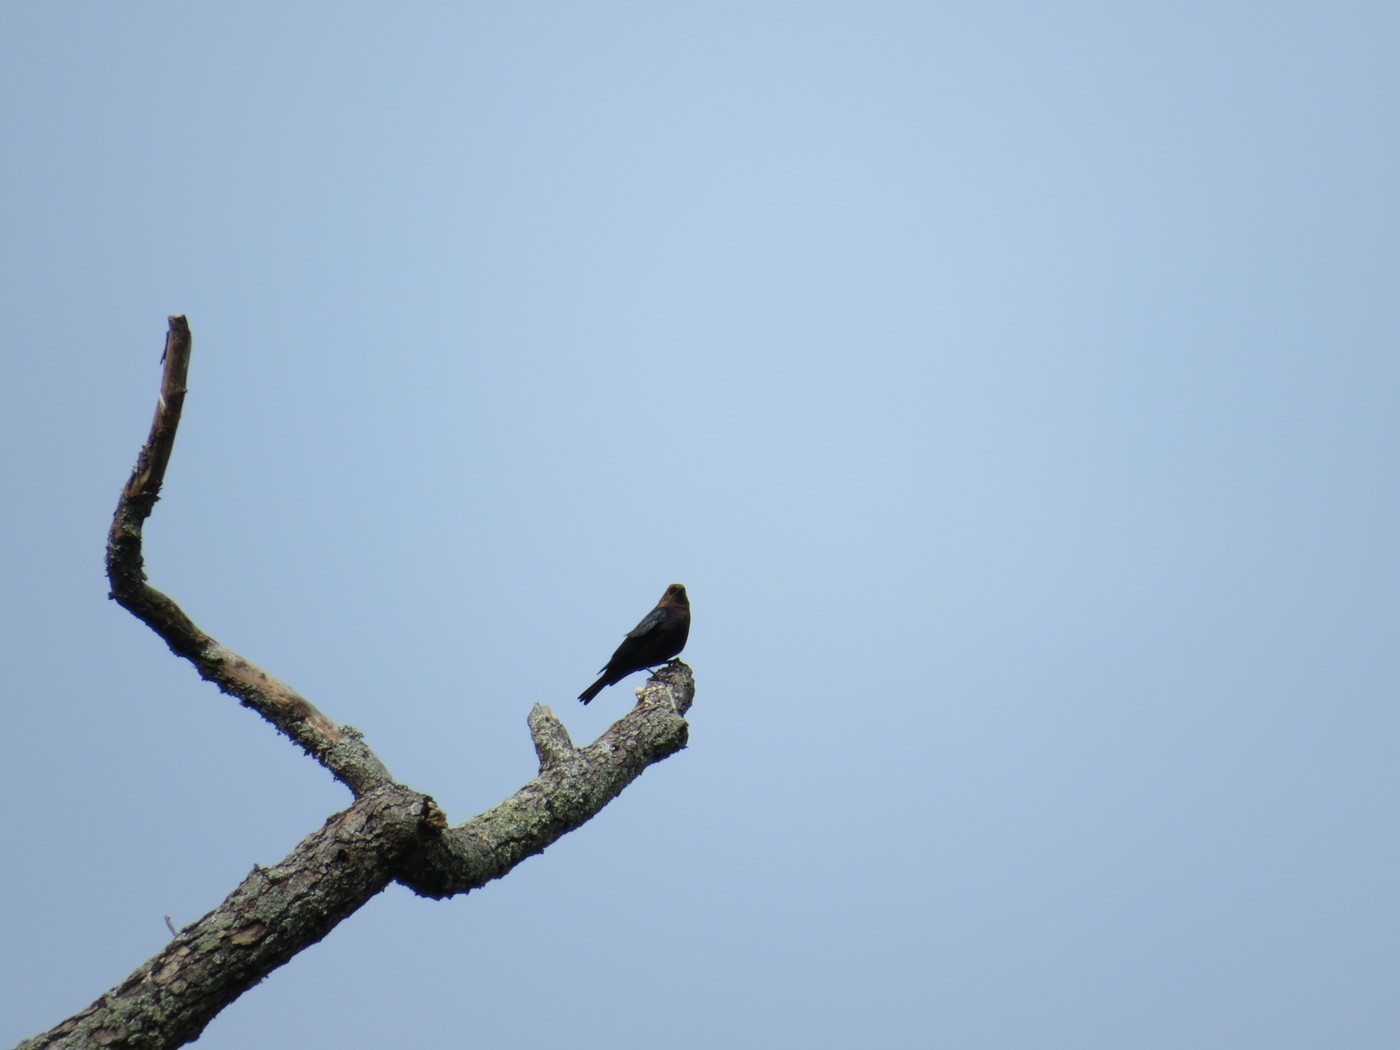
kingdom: Animalia
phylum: Chordata
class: Aves
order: Passeriformes
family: Icteridae
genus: Molothrus
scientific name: Molothrus ater
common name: Brown-headed cowbird
